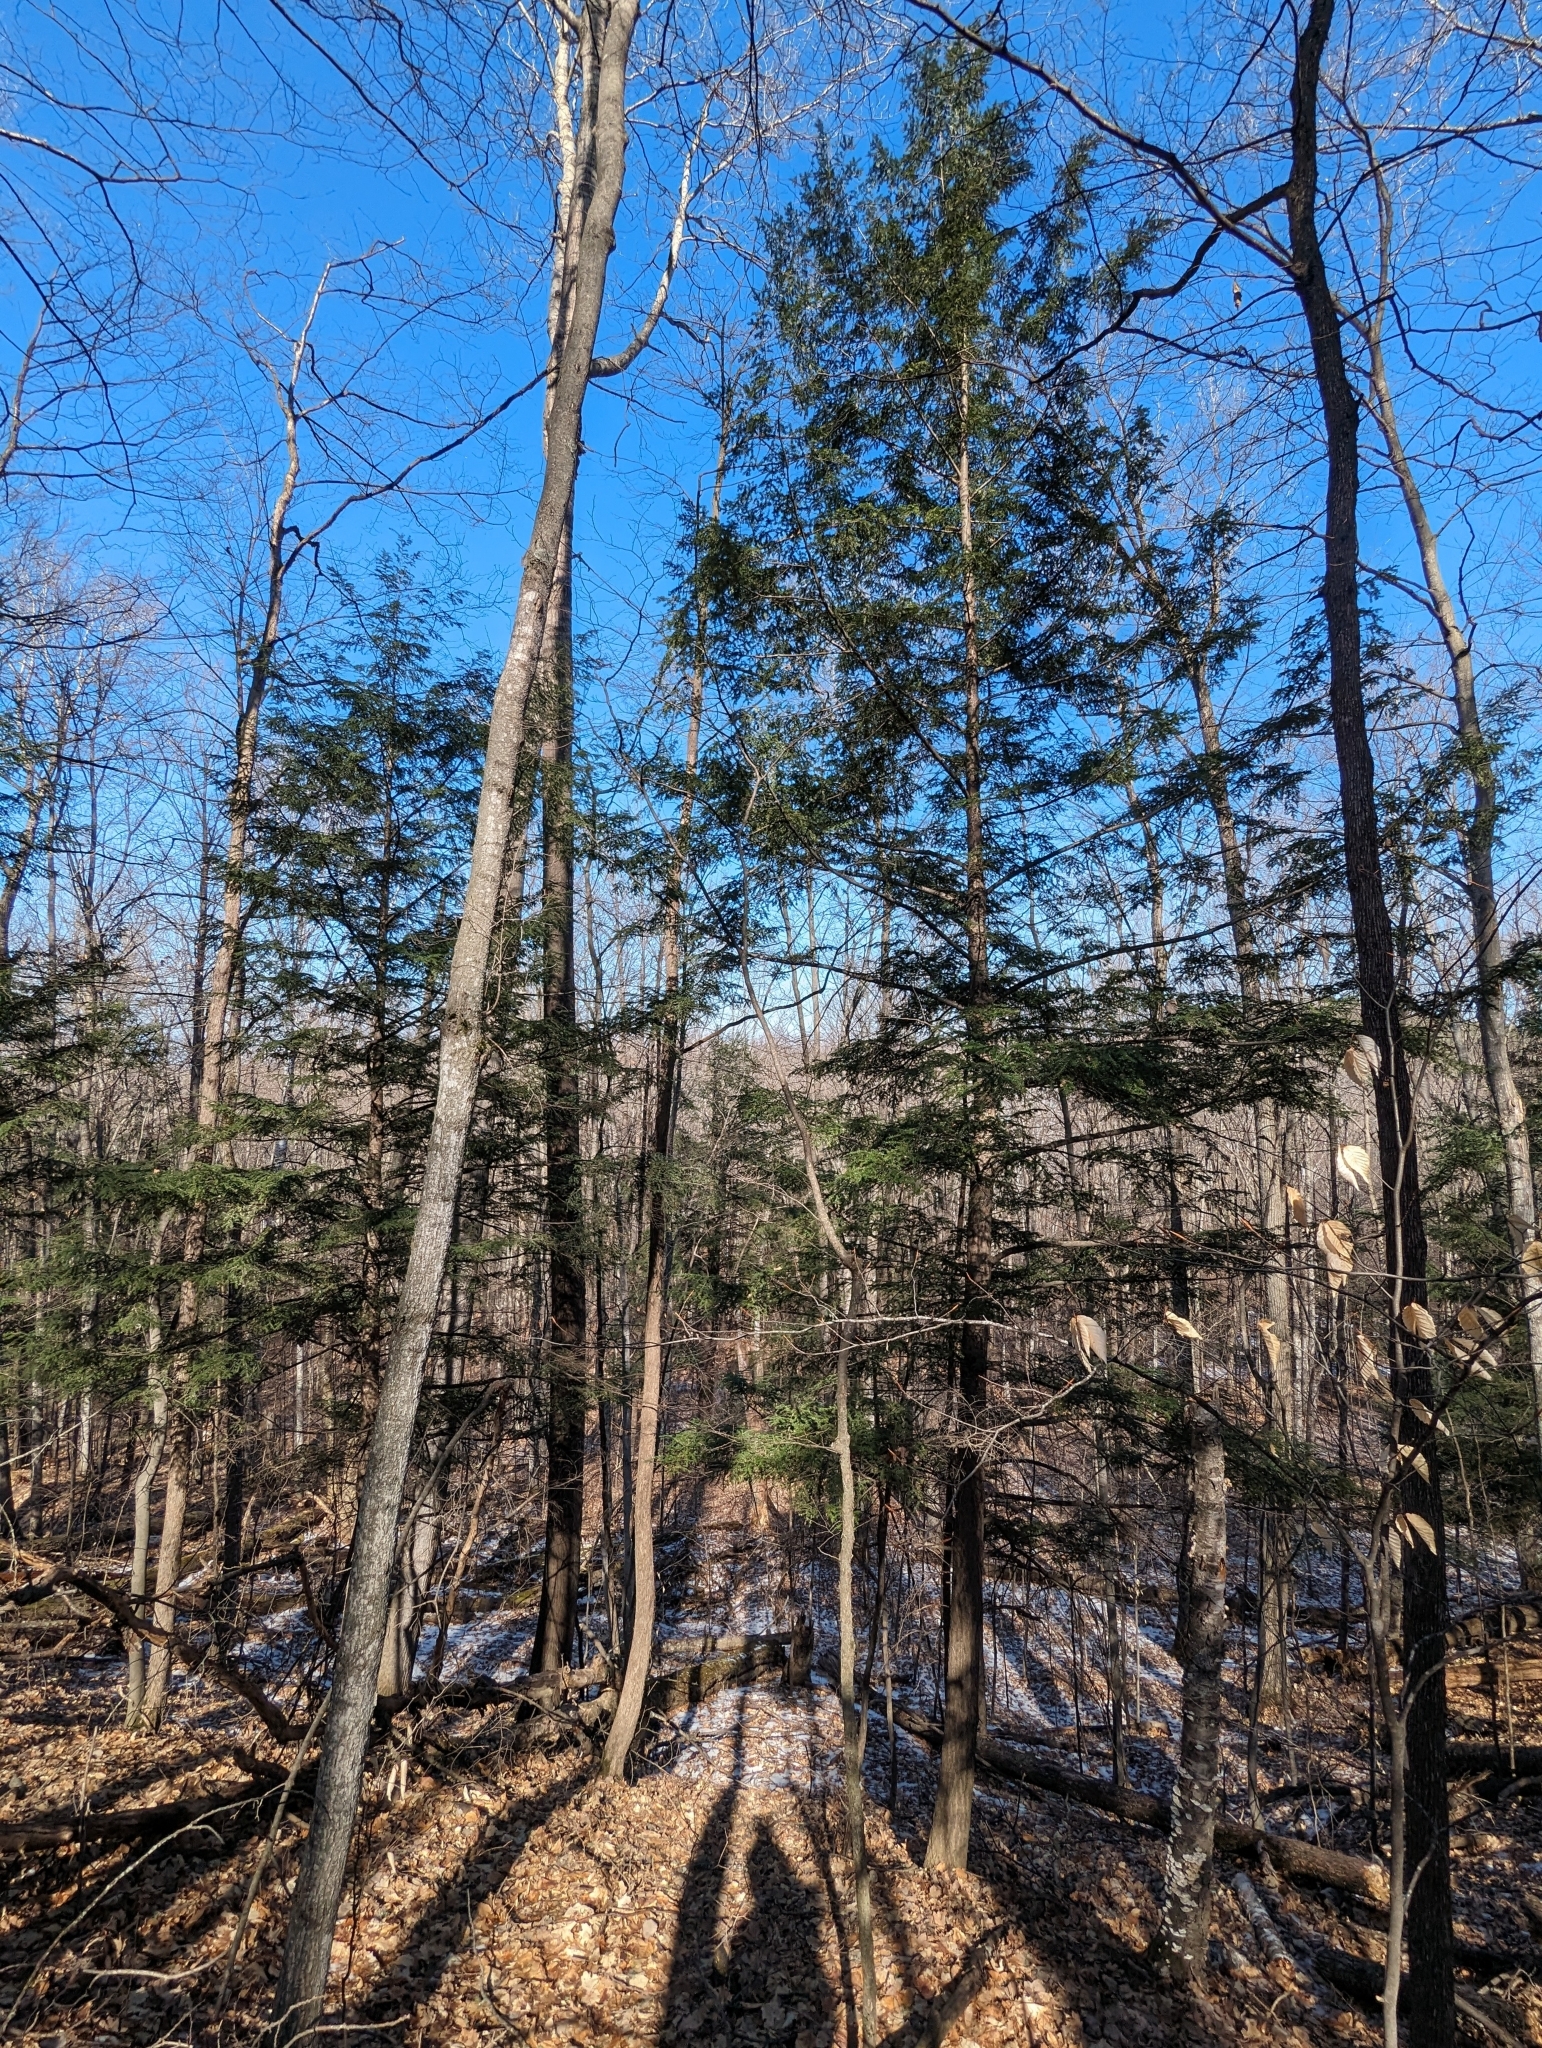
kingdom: Plantae
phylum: Tracheophyta
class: Pinopsida
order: Pinales
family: Pinaceae
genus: Tsuga
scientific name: Tsuga canadensis
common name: Eastern hemlock
